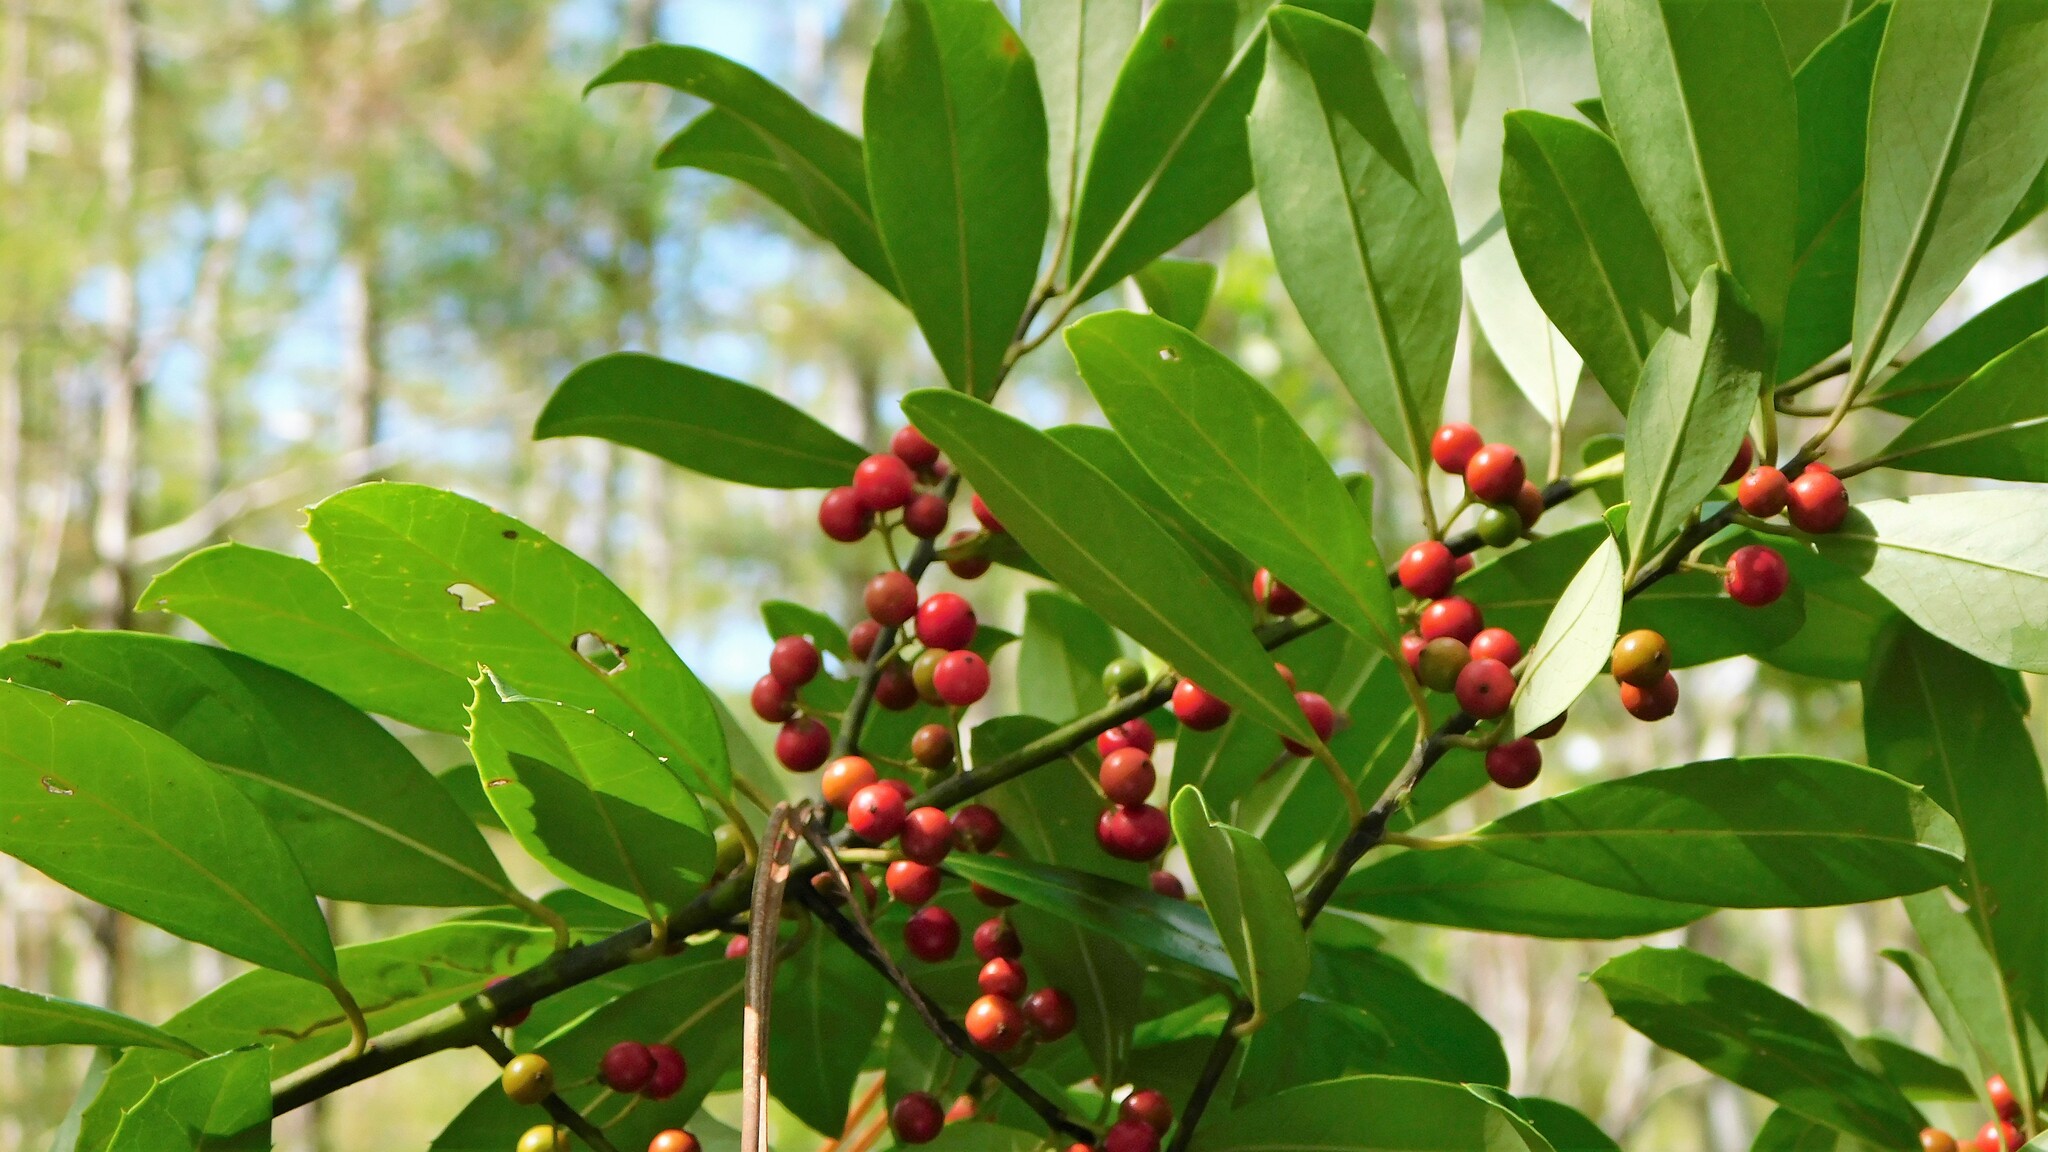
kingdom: Plantae
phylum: Tracheophyta
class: Magnoliopsida
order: Aquifoliales
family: Aquifoliaceae
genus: Ilex
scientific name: Ilex cassine
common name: Dahoon
